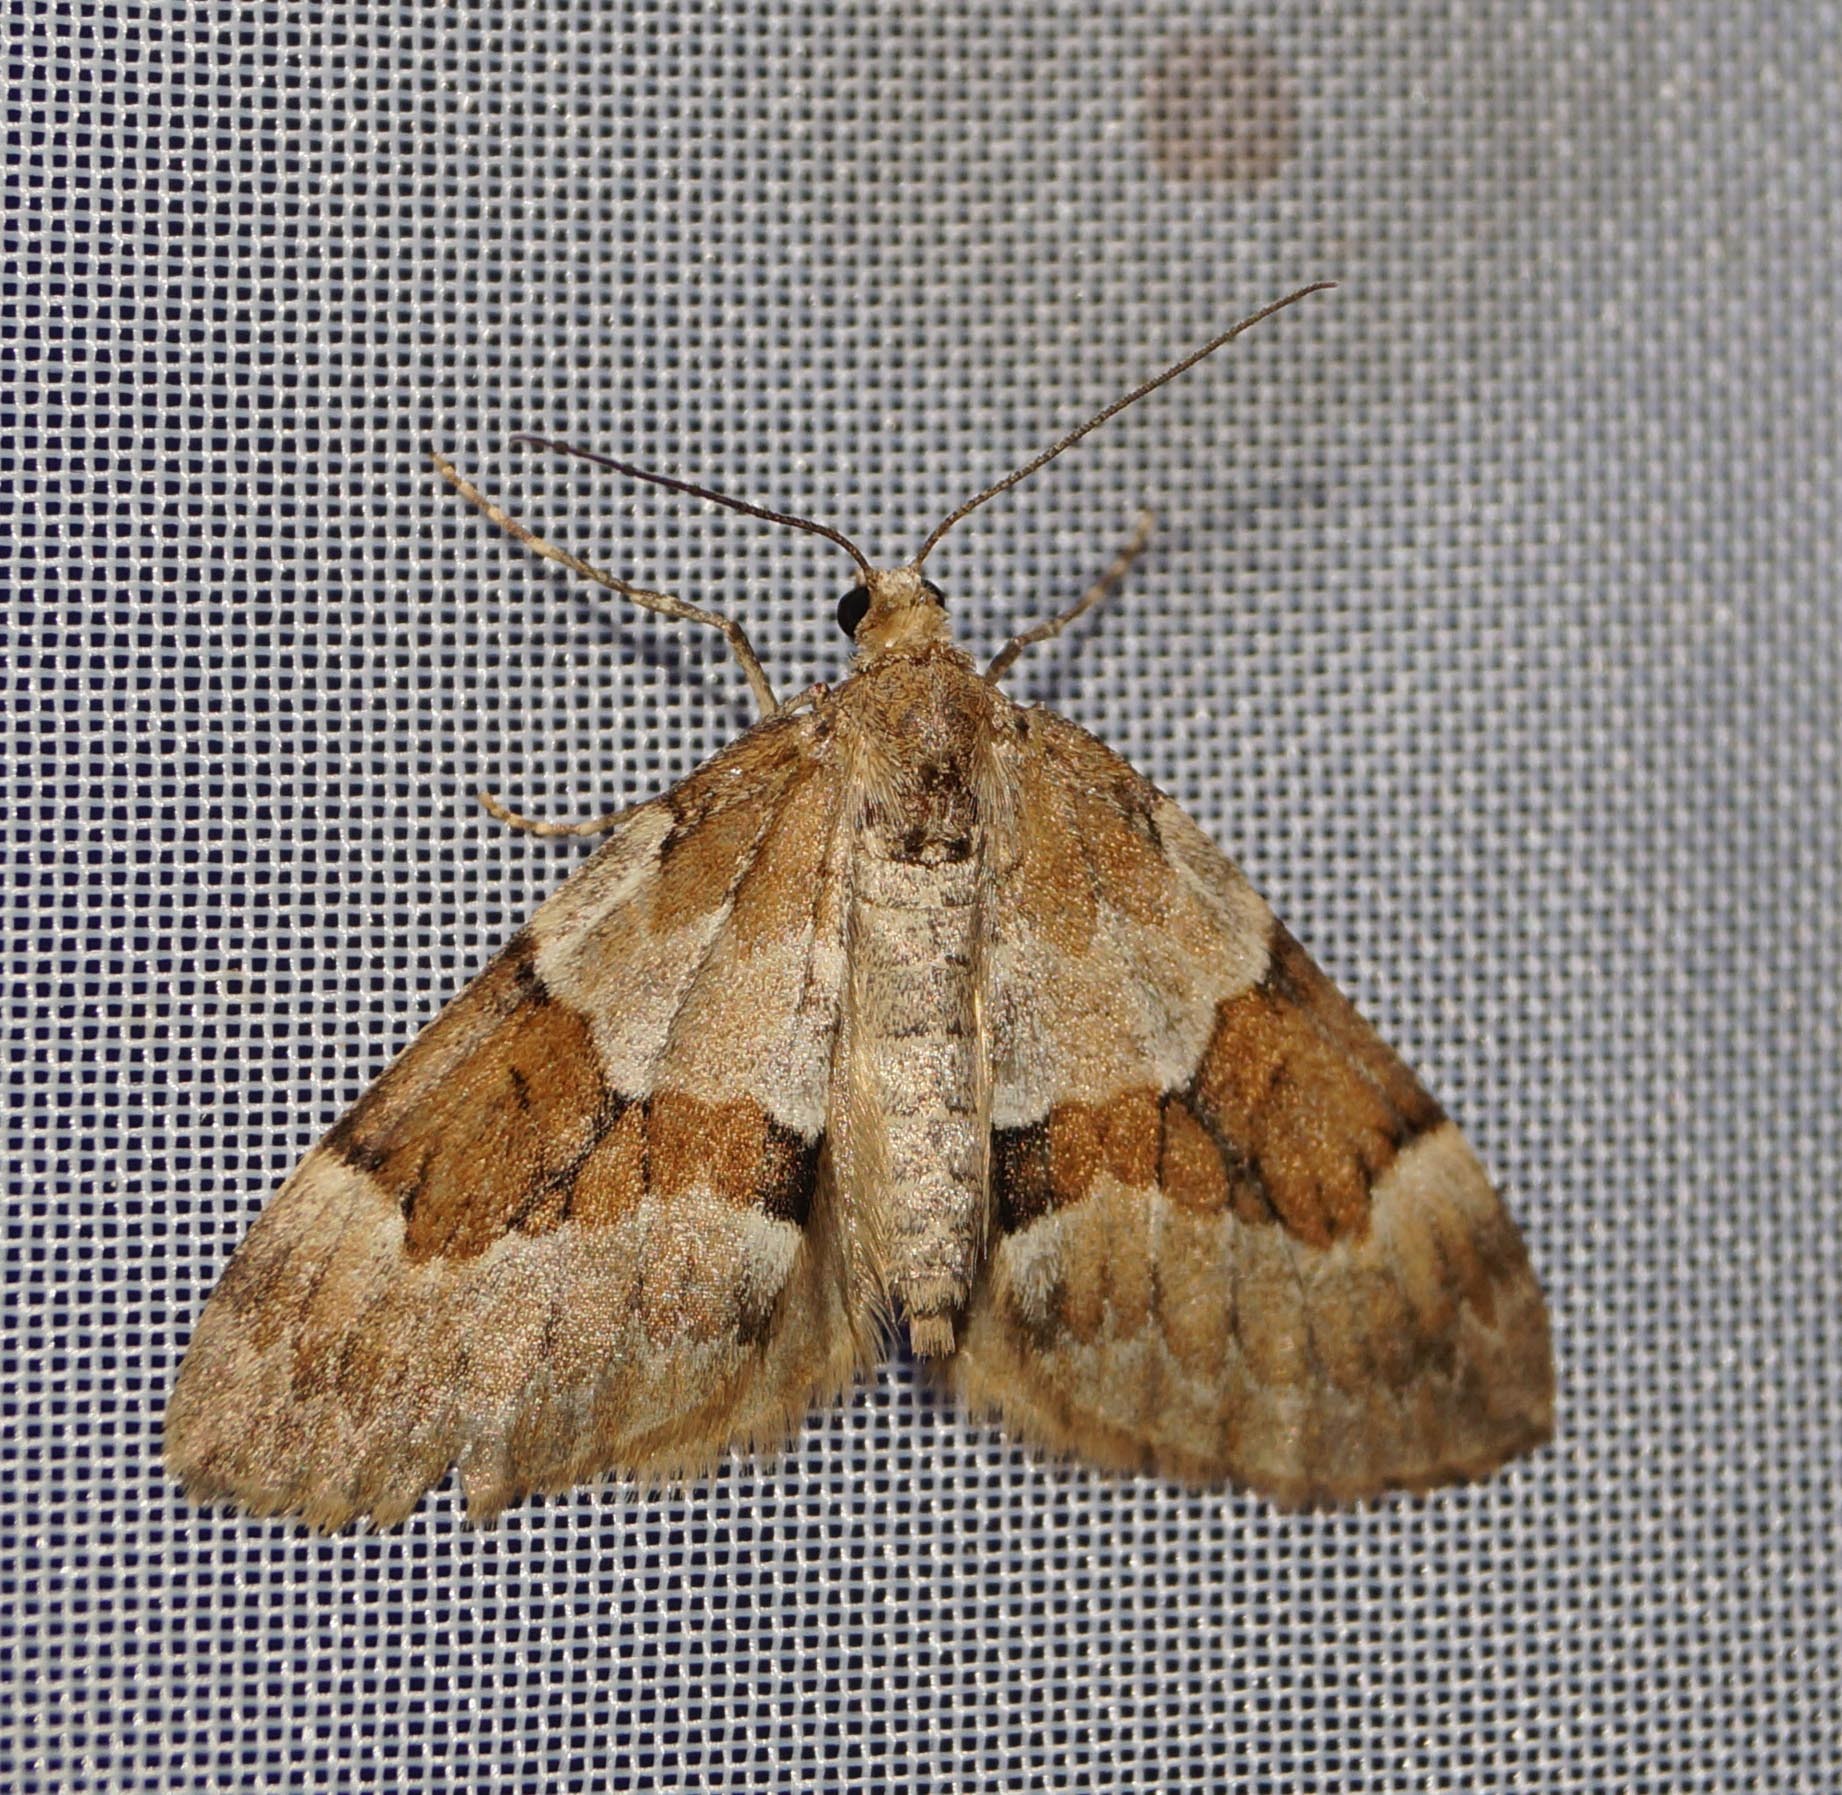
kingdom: Animalia
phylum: Arthropoda
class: Insecta
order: Lepidoptera
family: Geometridae
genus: Thera
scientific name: Thera obeliscata
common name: Grey pine carpet
